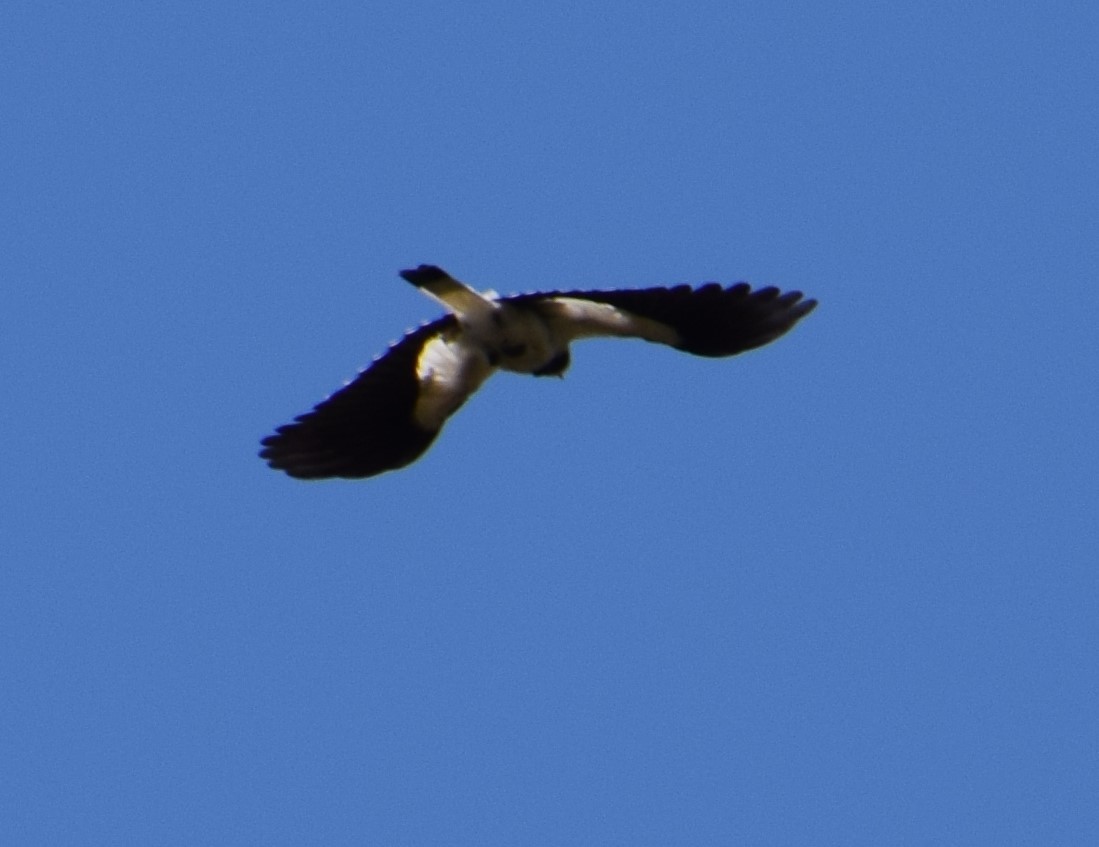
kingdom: Animalia
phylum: Chordata
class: Aves
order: Passeriformes
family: Monarchidae
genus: Grallina
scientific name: Grallina cyanoleuca
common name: Magpie-lark
